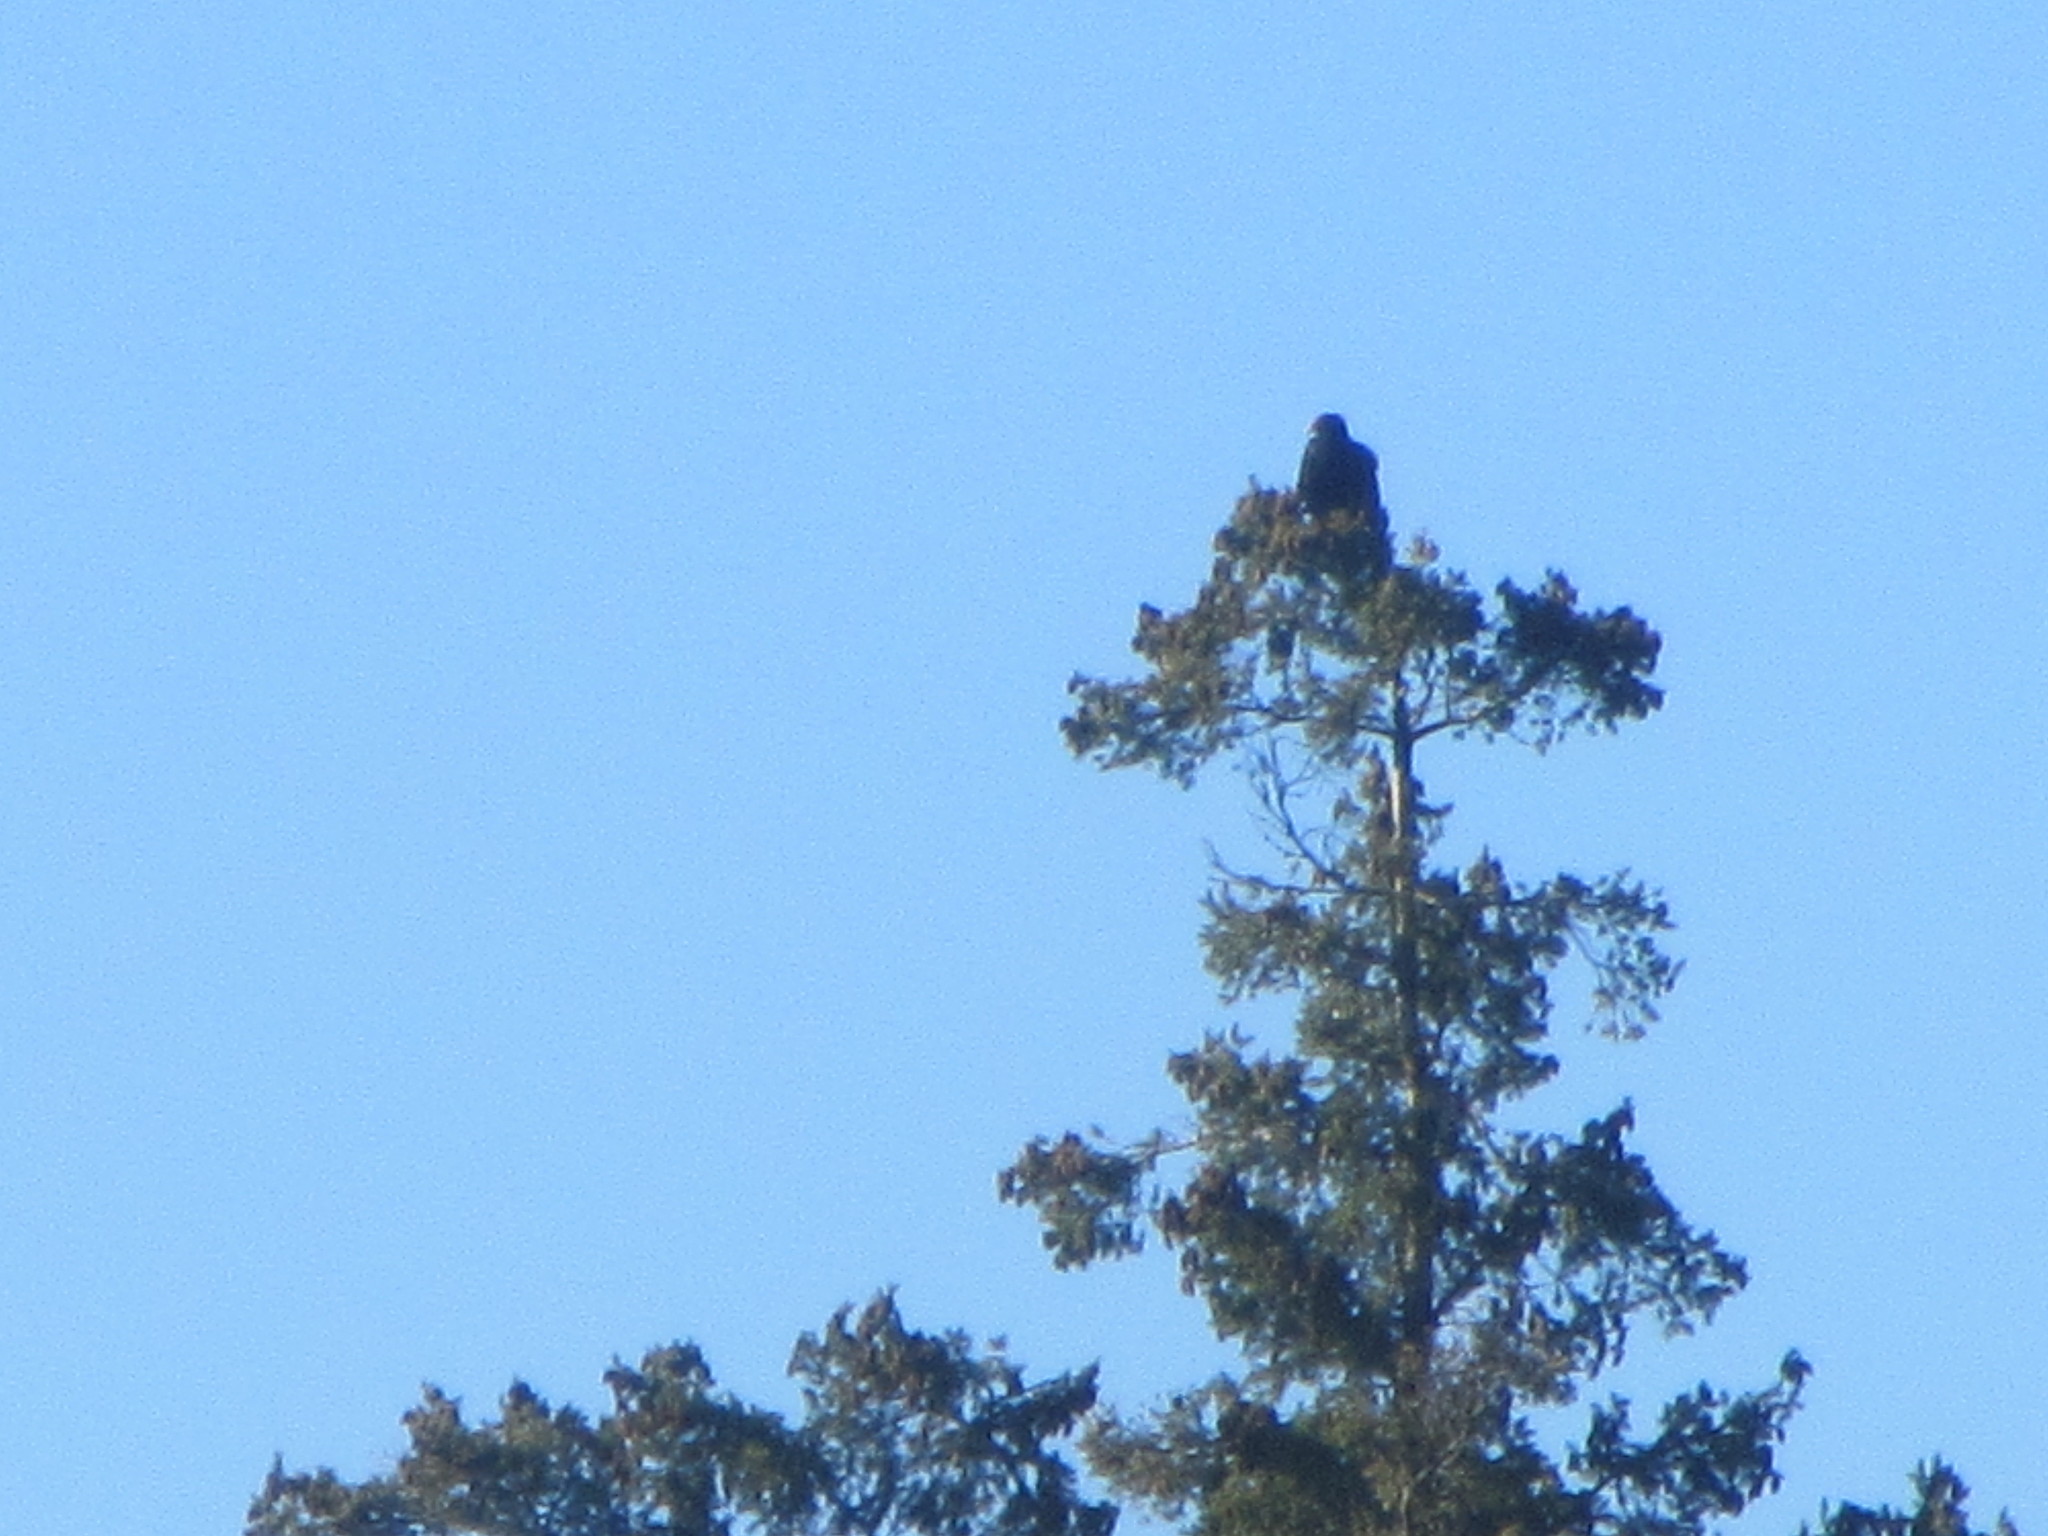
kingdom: Animalia
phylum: Chordata
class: Aves
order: Accipitriformes
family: Cathartidae
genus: Cathartes
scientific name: Cathartes aura
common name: Turkey vulture
